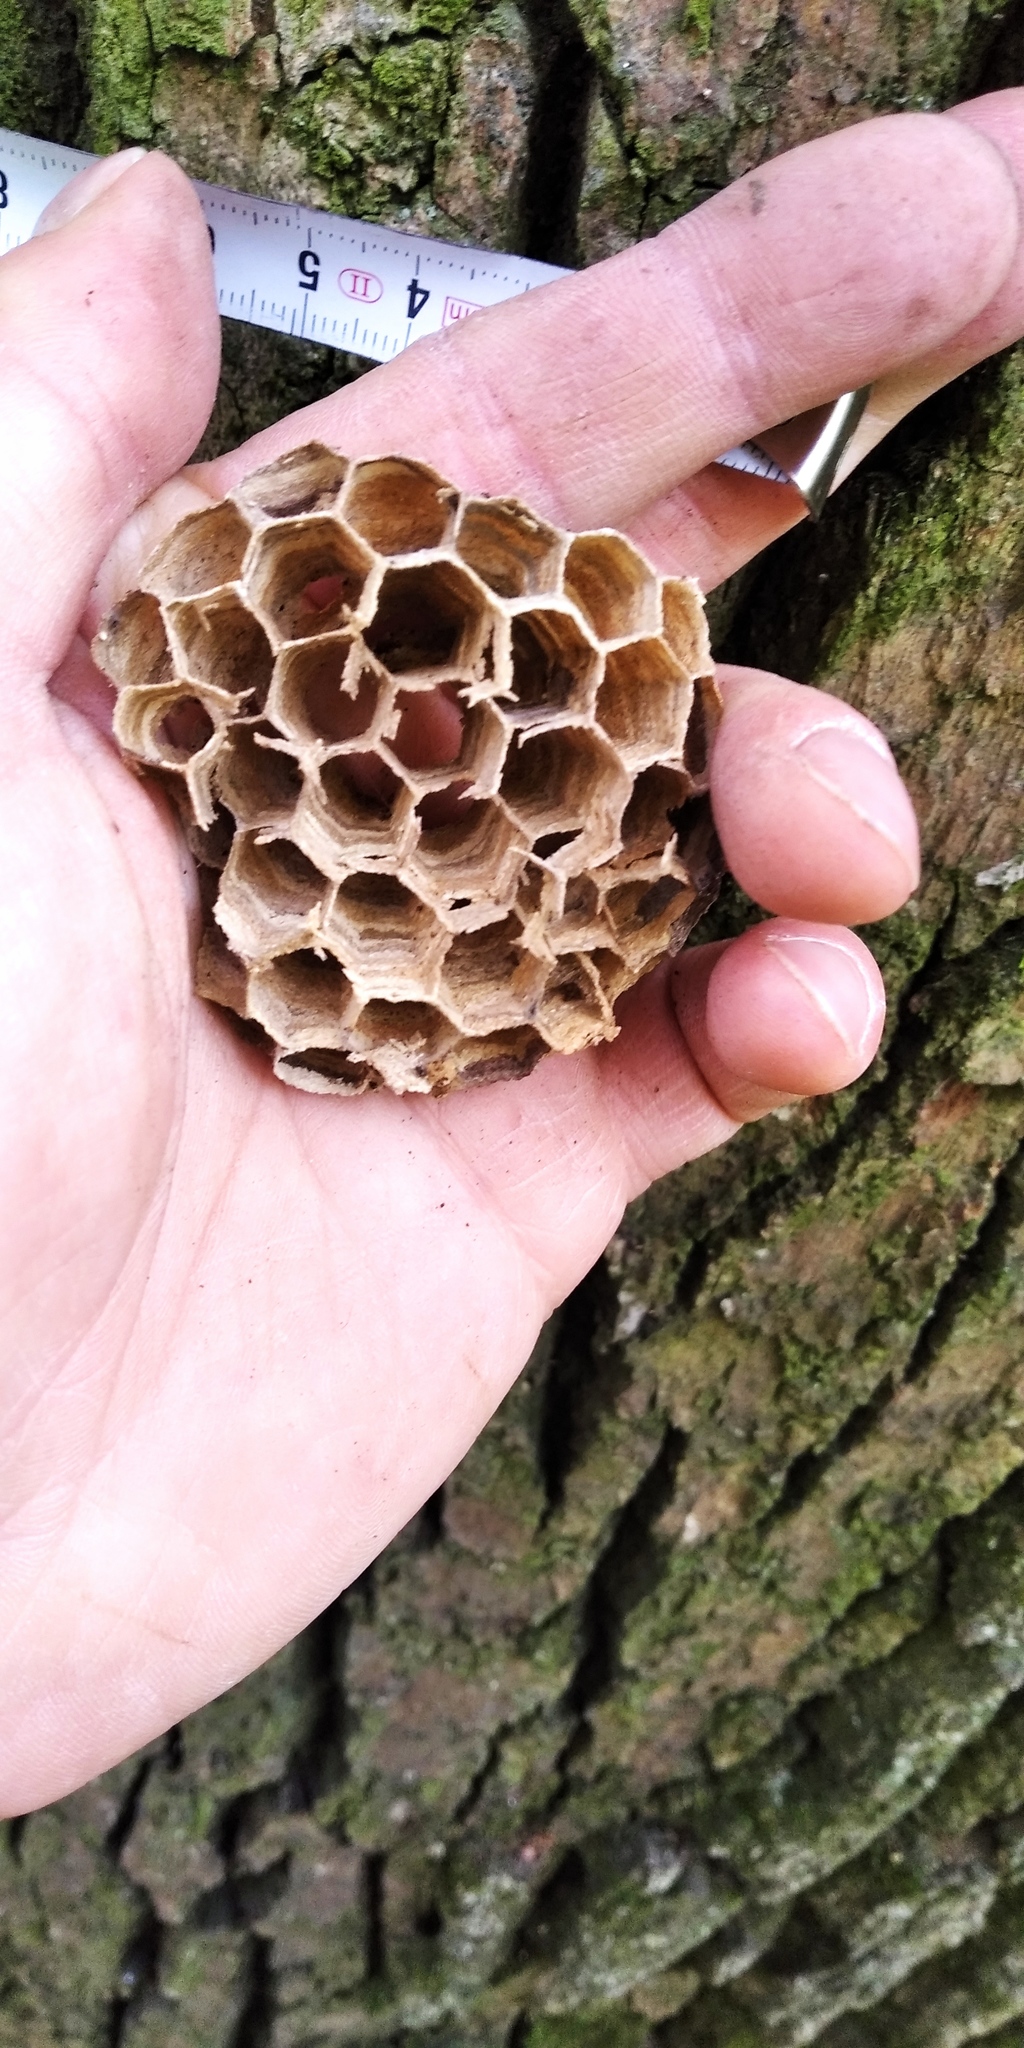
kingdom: Animalia
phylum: Arthropoda
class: Insecta
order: Hymenoptera
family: Vespidae
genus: Vespa
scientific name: Vespa crabro
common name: Hornet
